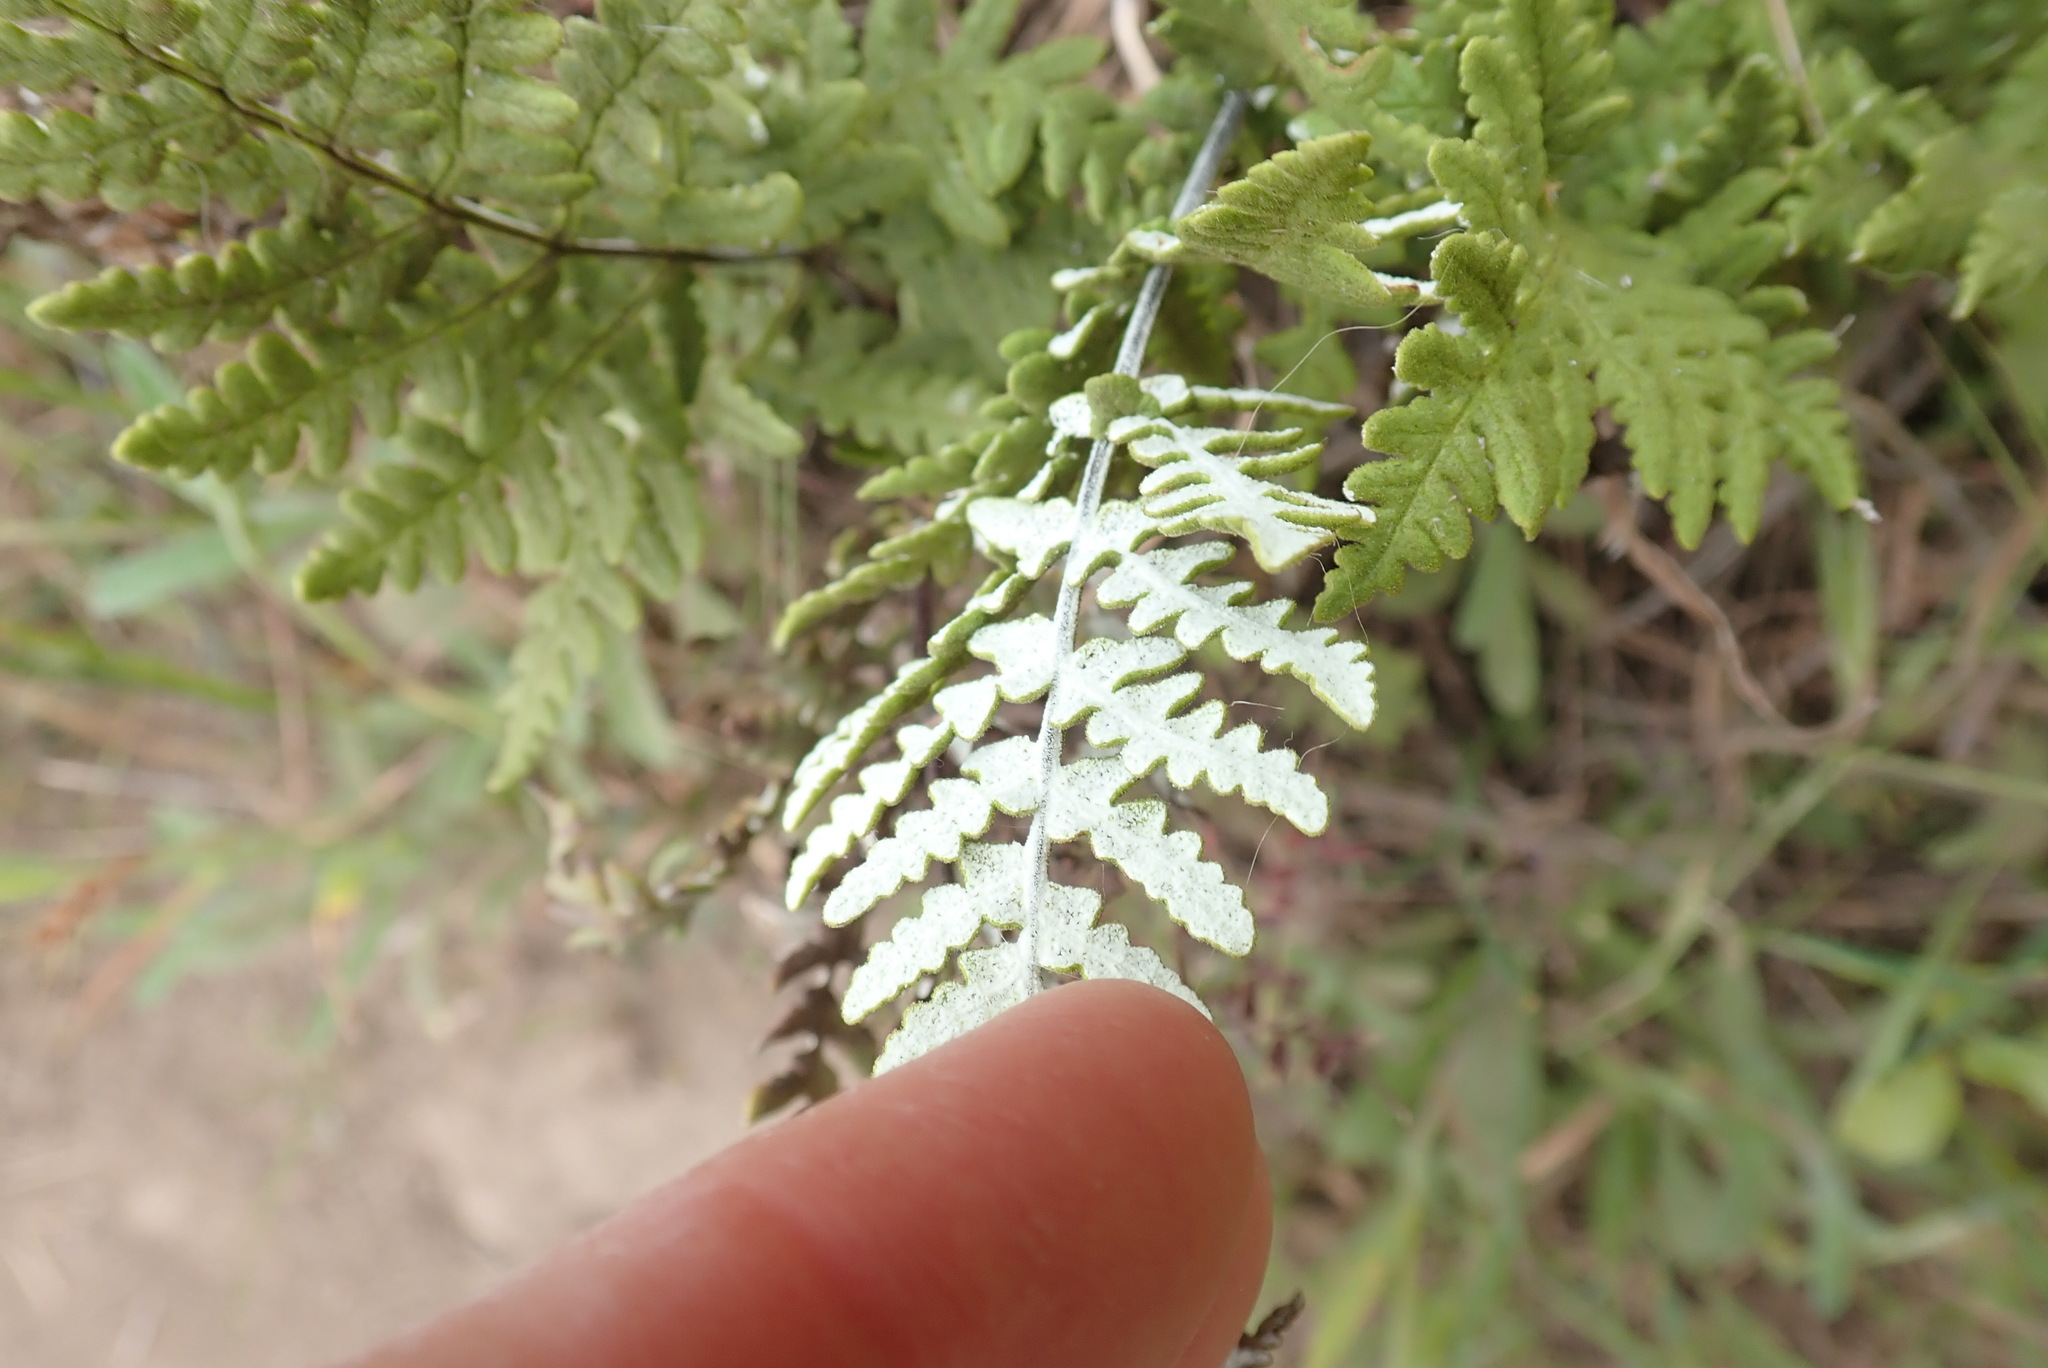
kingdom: Plantae
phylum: Tracheophyta
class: Polypodiopsida
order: Polypodiales
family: Pteridaceae
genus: Pentagramma
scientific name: Pentagramma glanduloviscida
